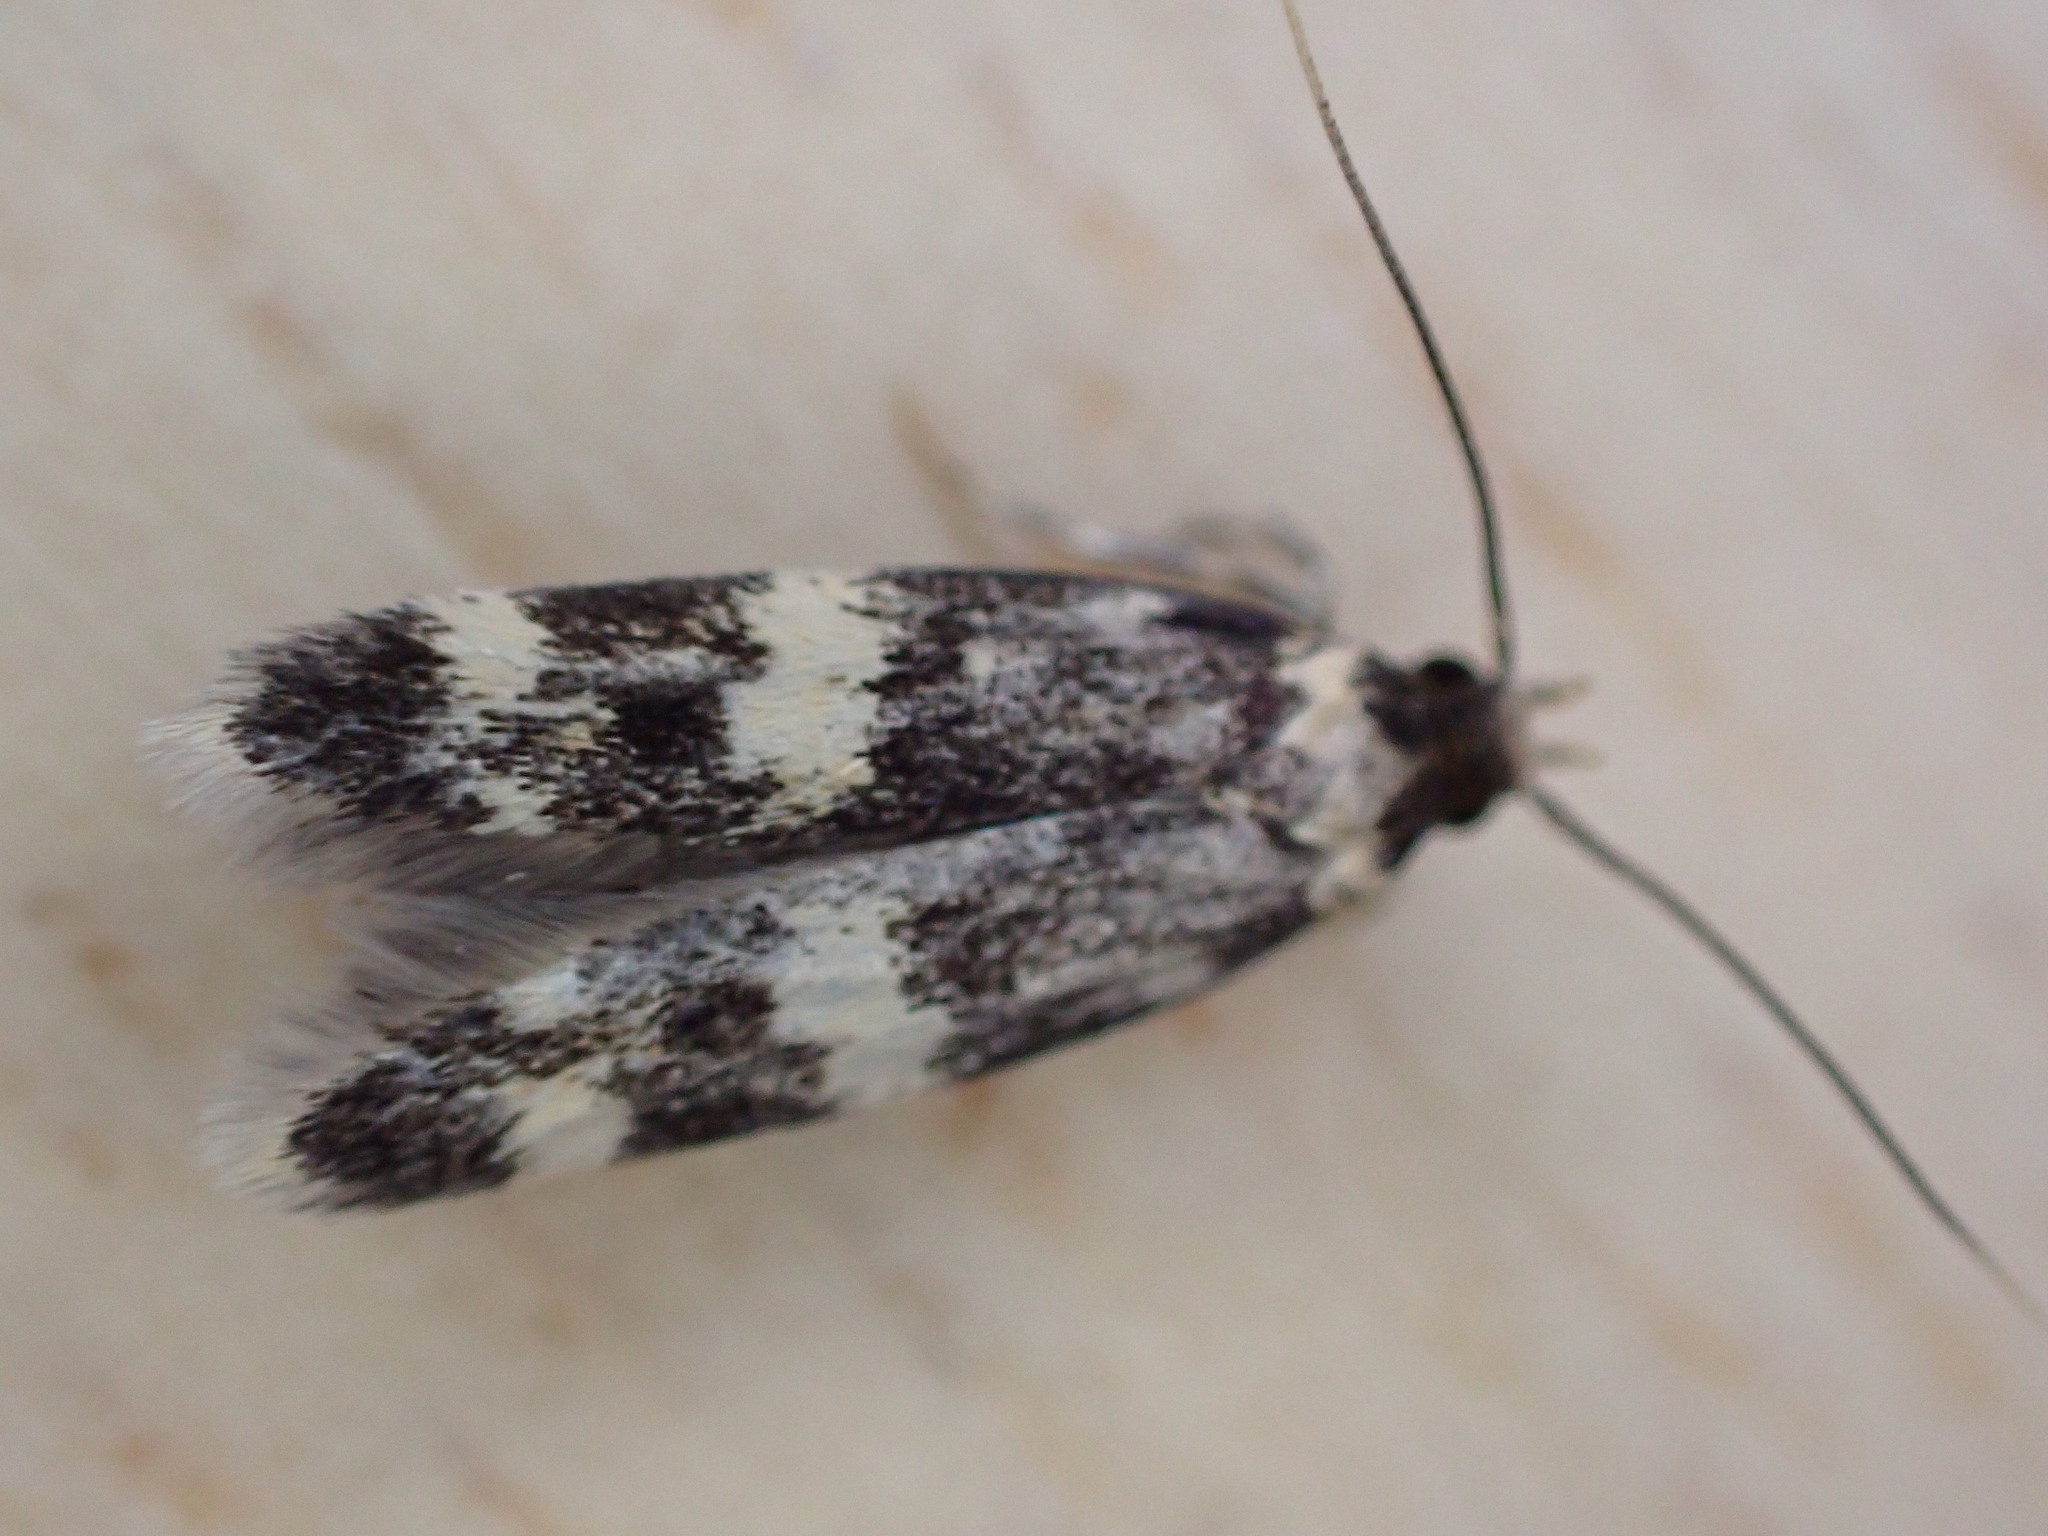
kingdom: Animalia
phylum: Arthropoda
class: Insecta
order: Lepidoptera
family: Autostichidae
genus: Oegoconia
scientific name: Oegoconia
